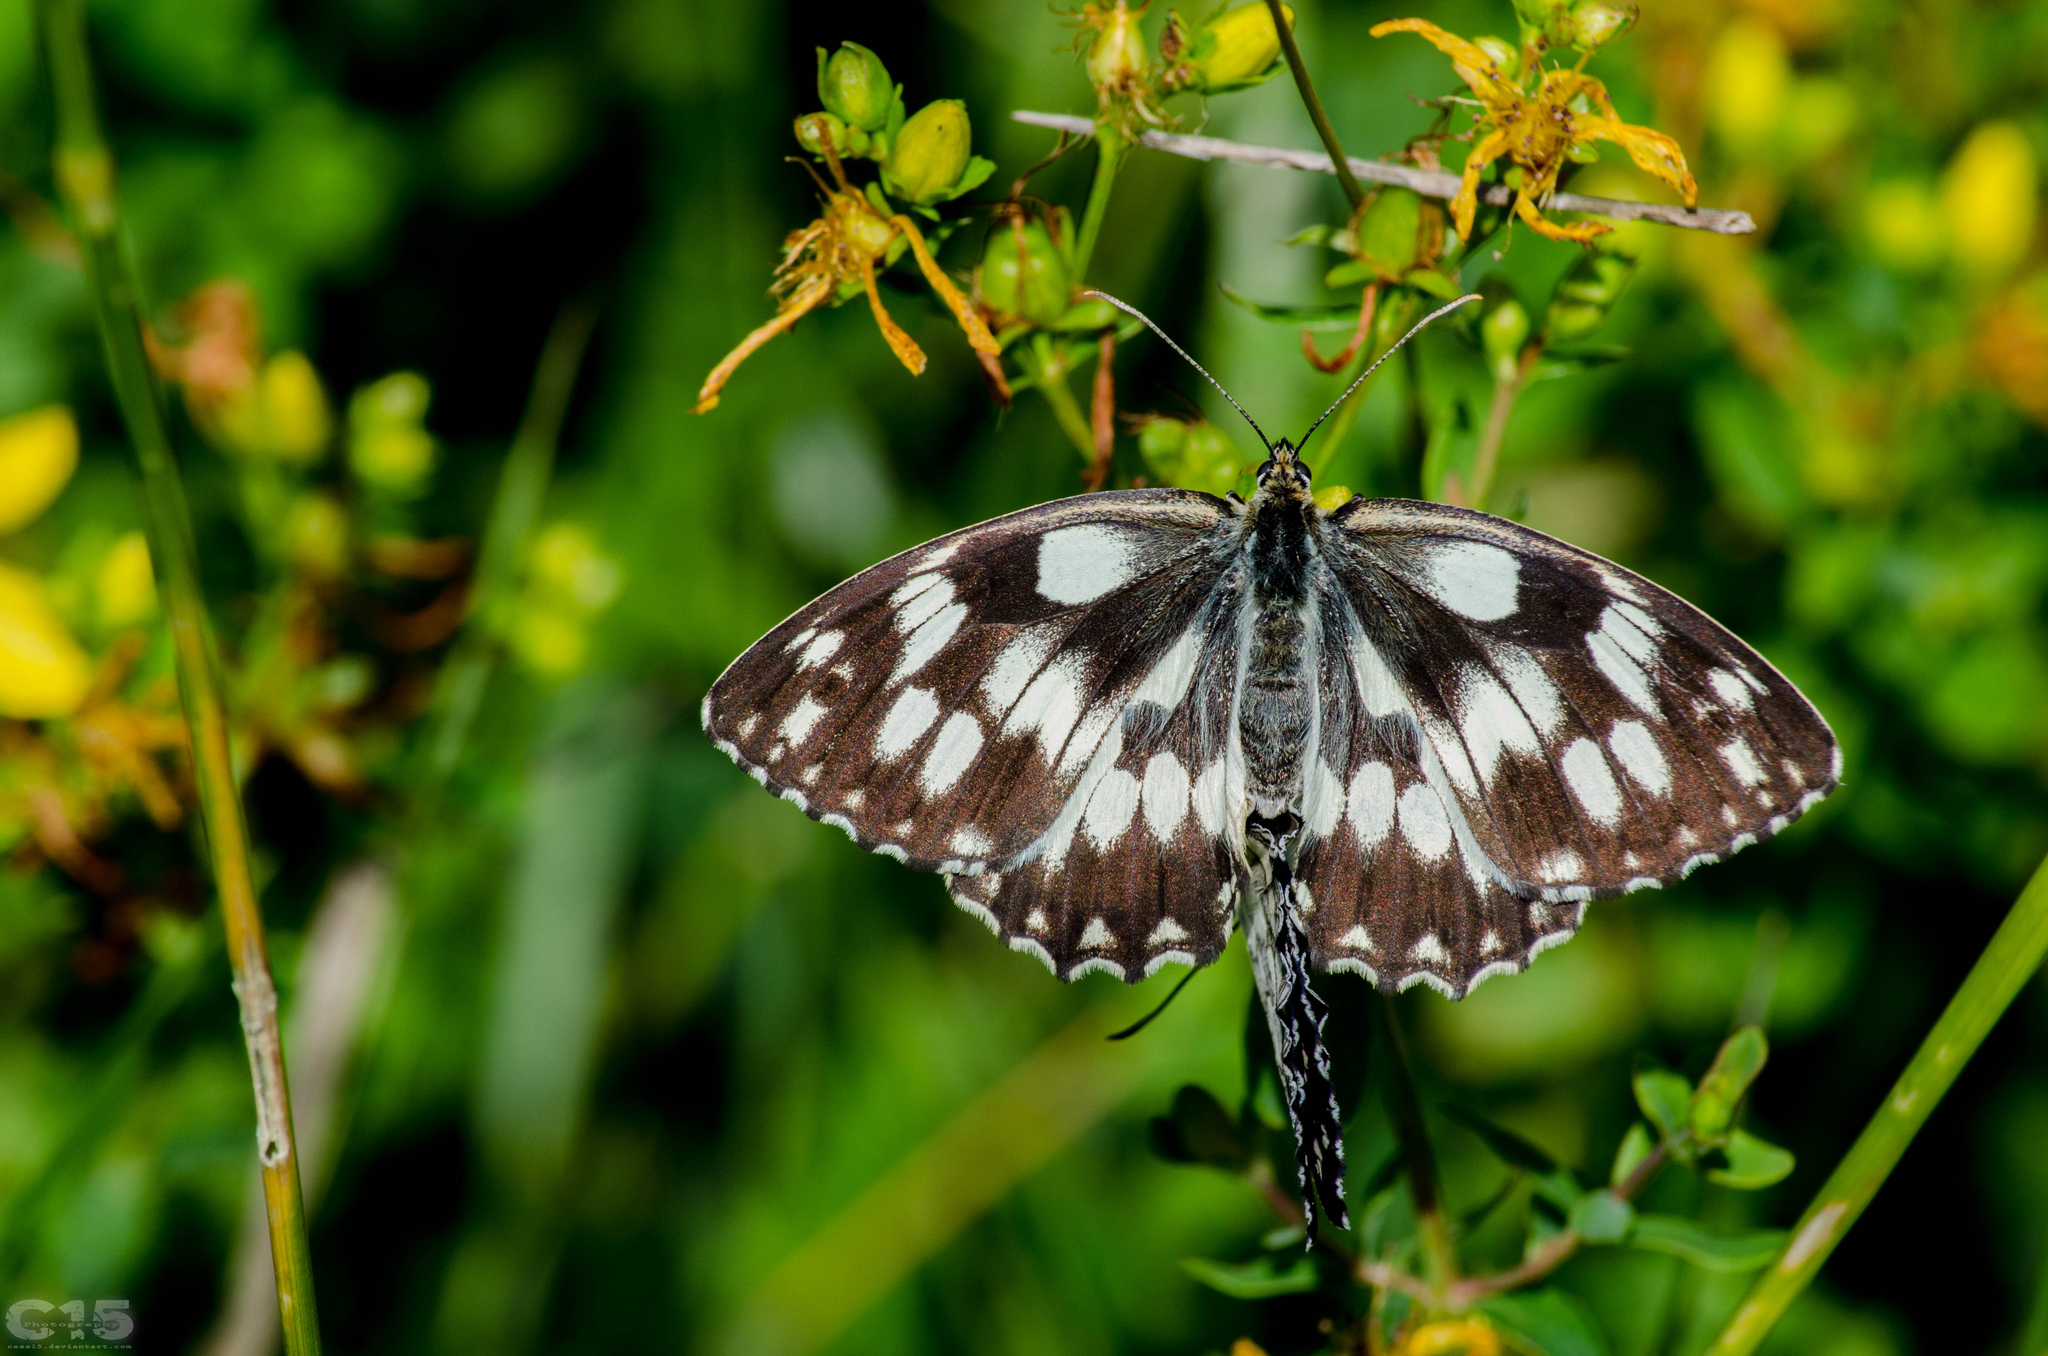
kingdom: Animalia
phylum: Arthropoda
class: Insecta
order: Lepidoptera
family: Nymphalidae
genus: Melanargia
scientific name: Melanargia galathea
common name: Marbled white
